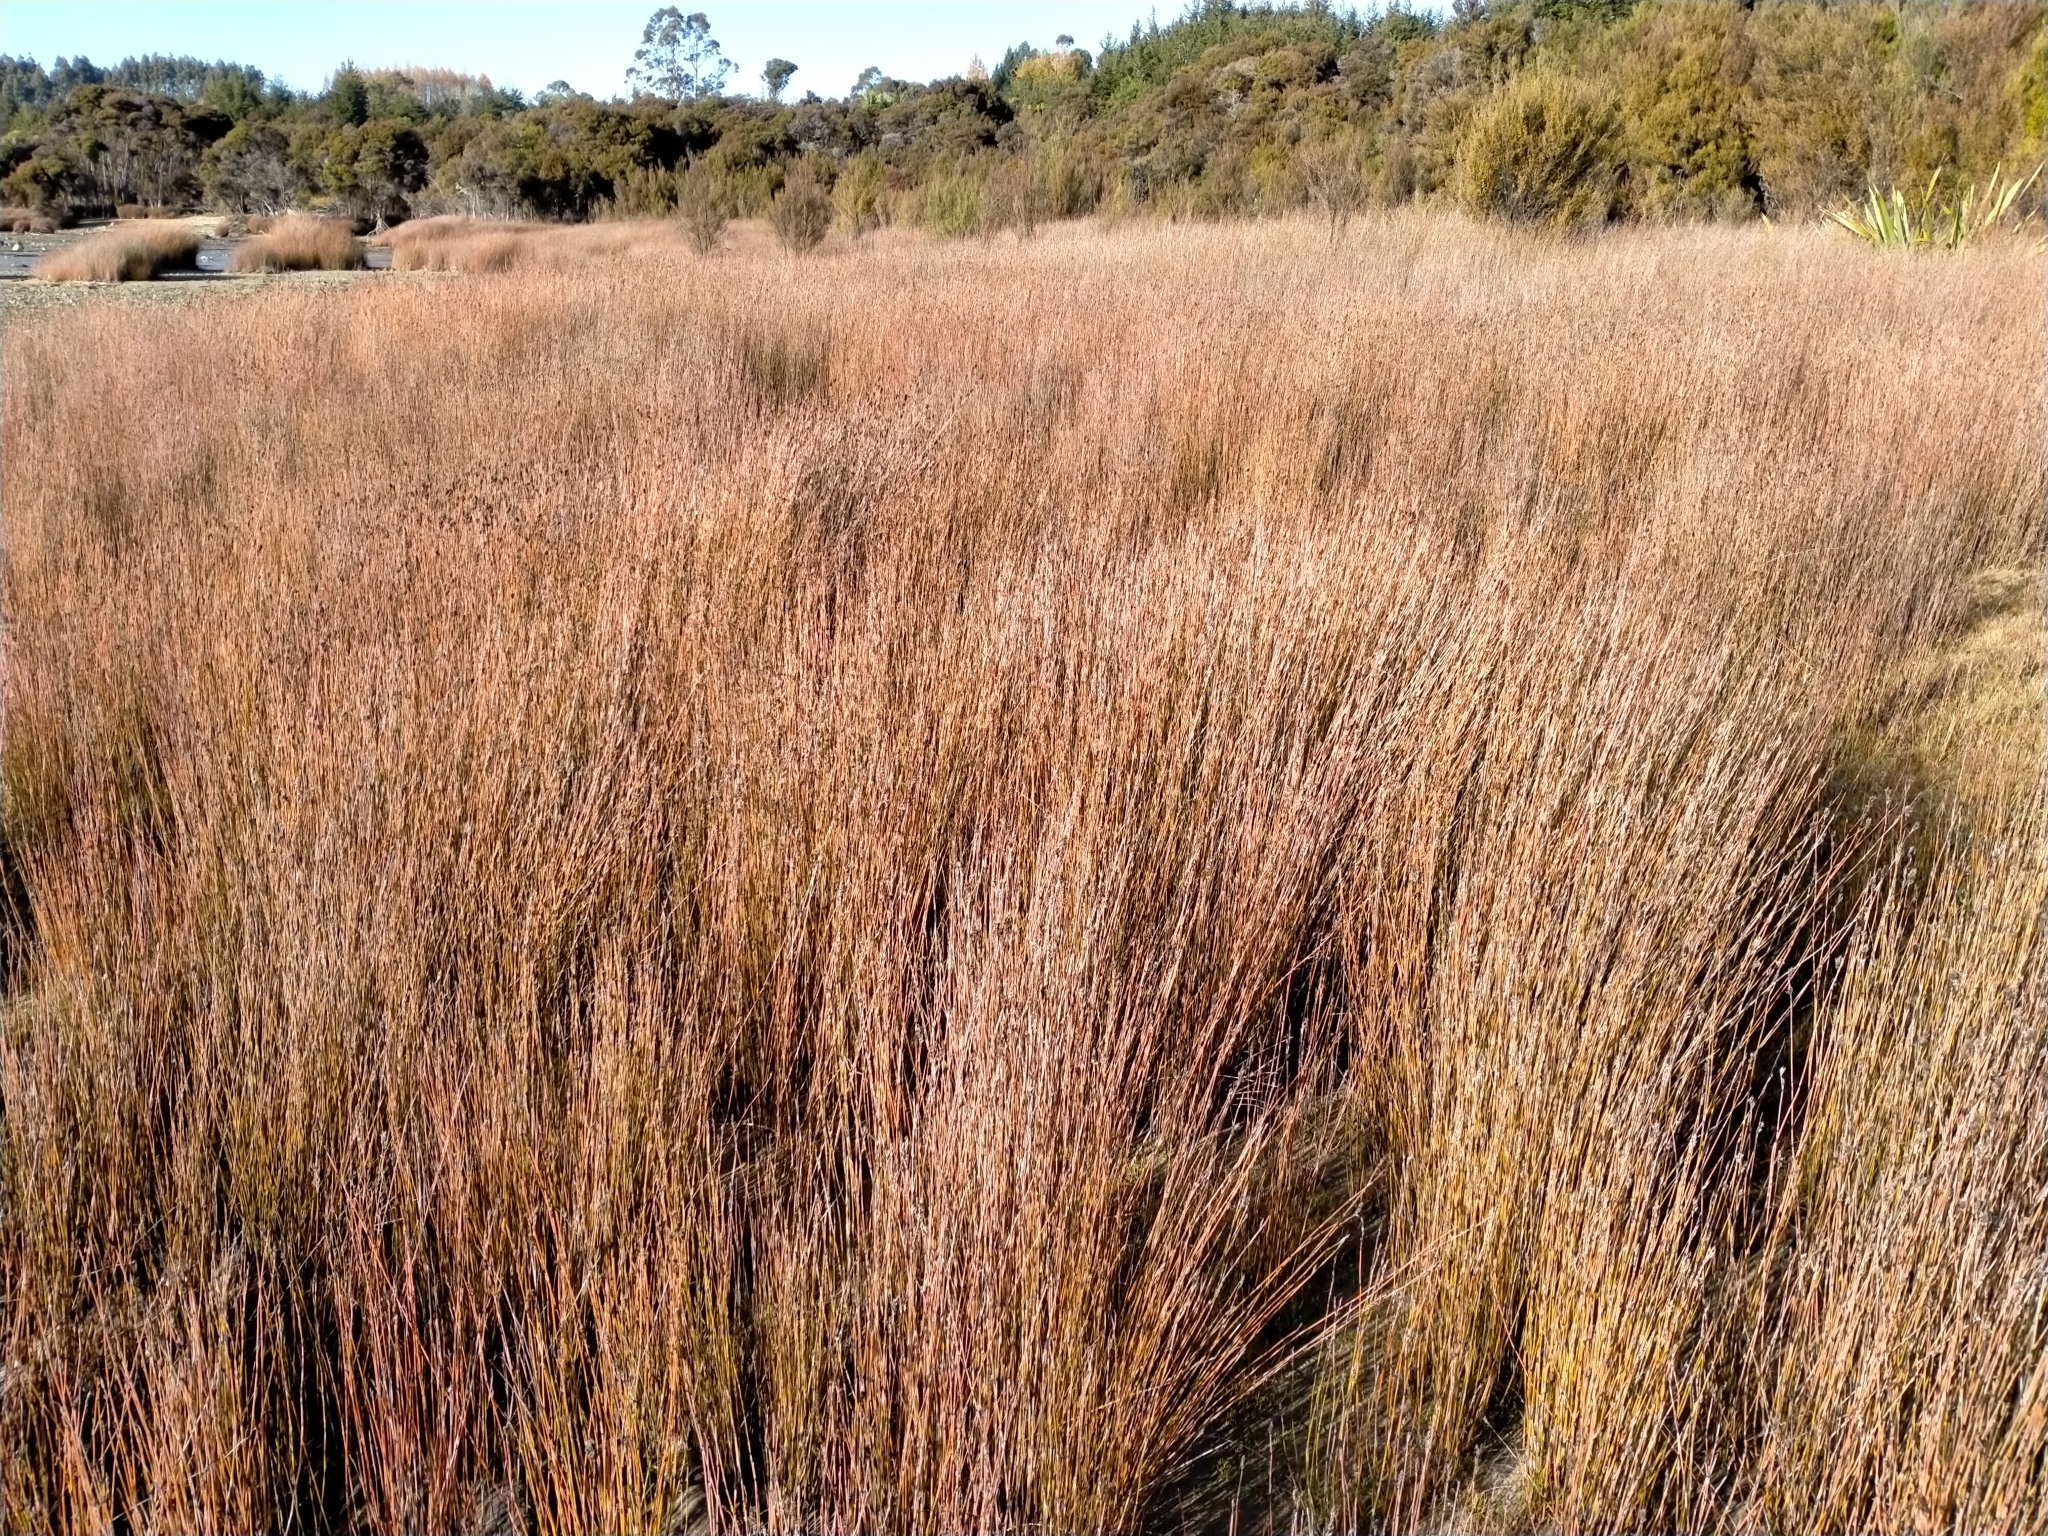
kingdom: Plantae
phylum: Tracheophyta
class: Liliopsida
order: Poales
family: Restionaceae
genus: Apodasmia
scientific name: Apodasmia similis
